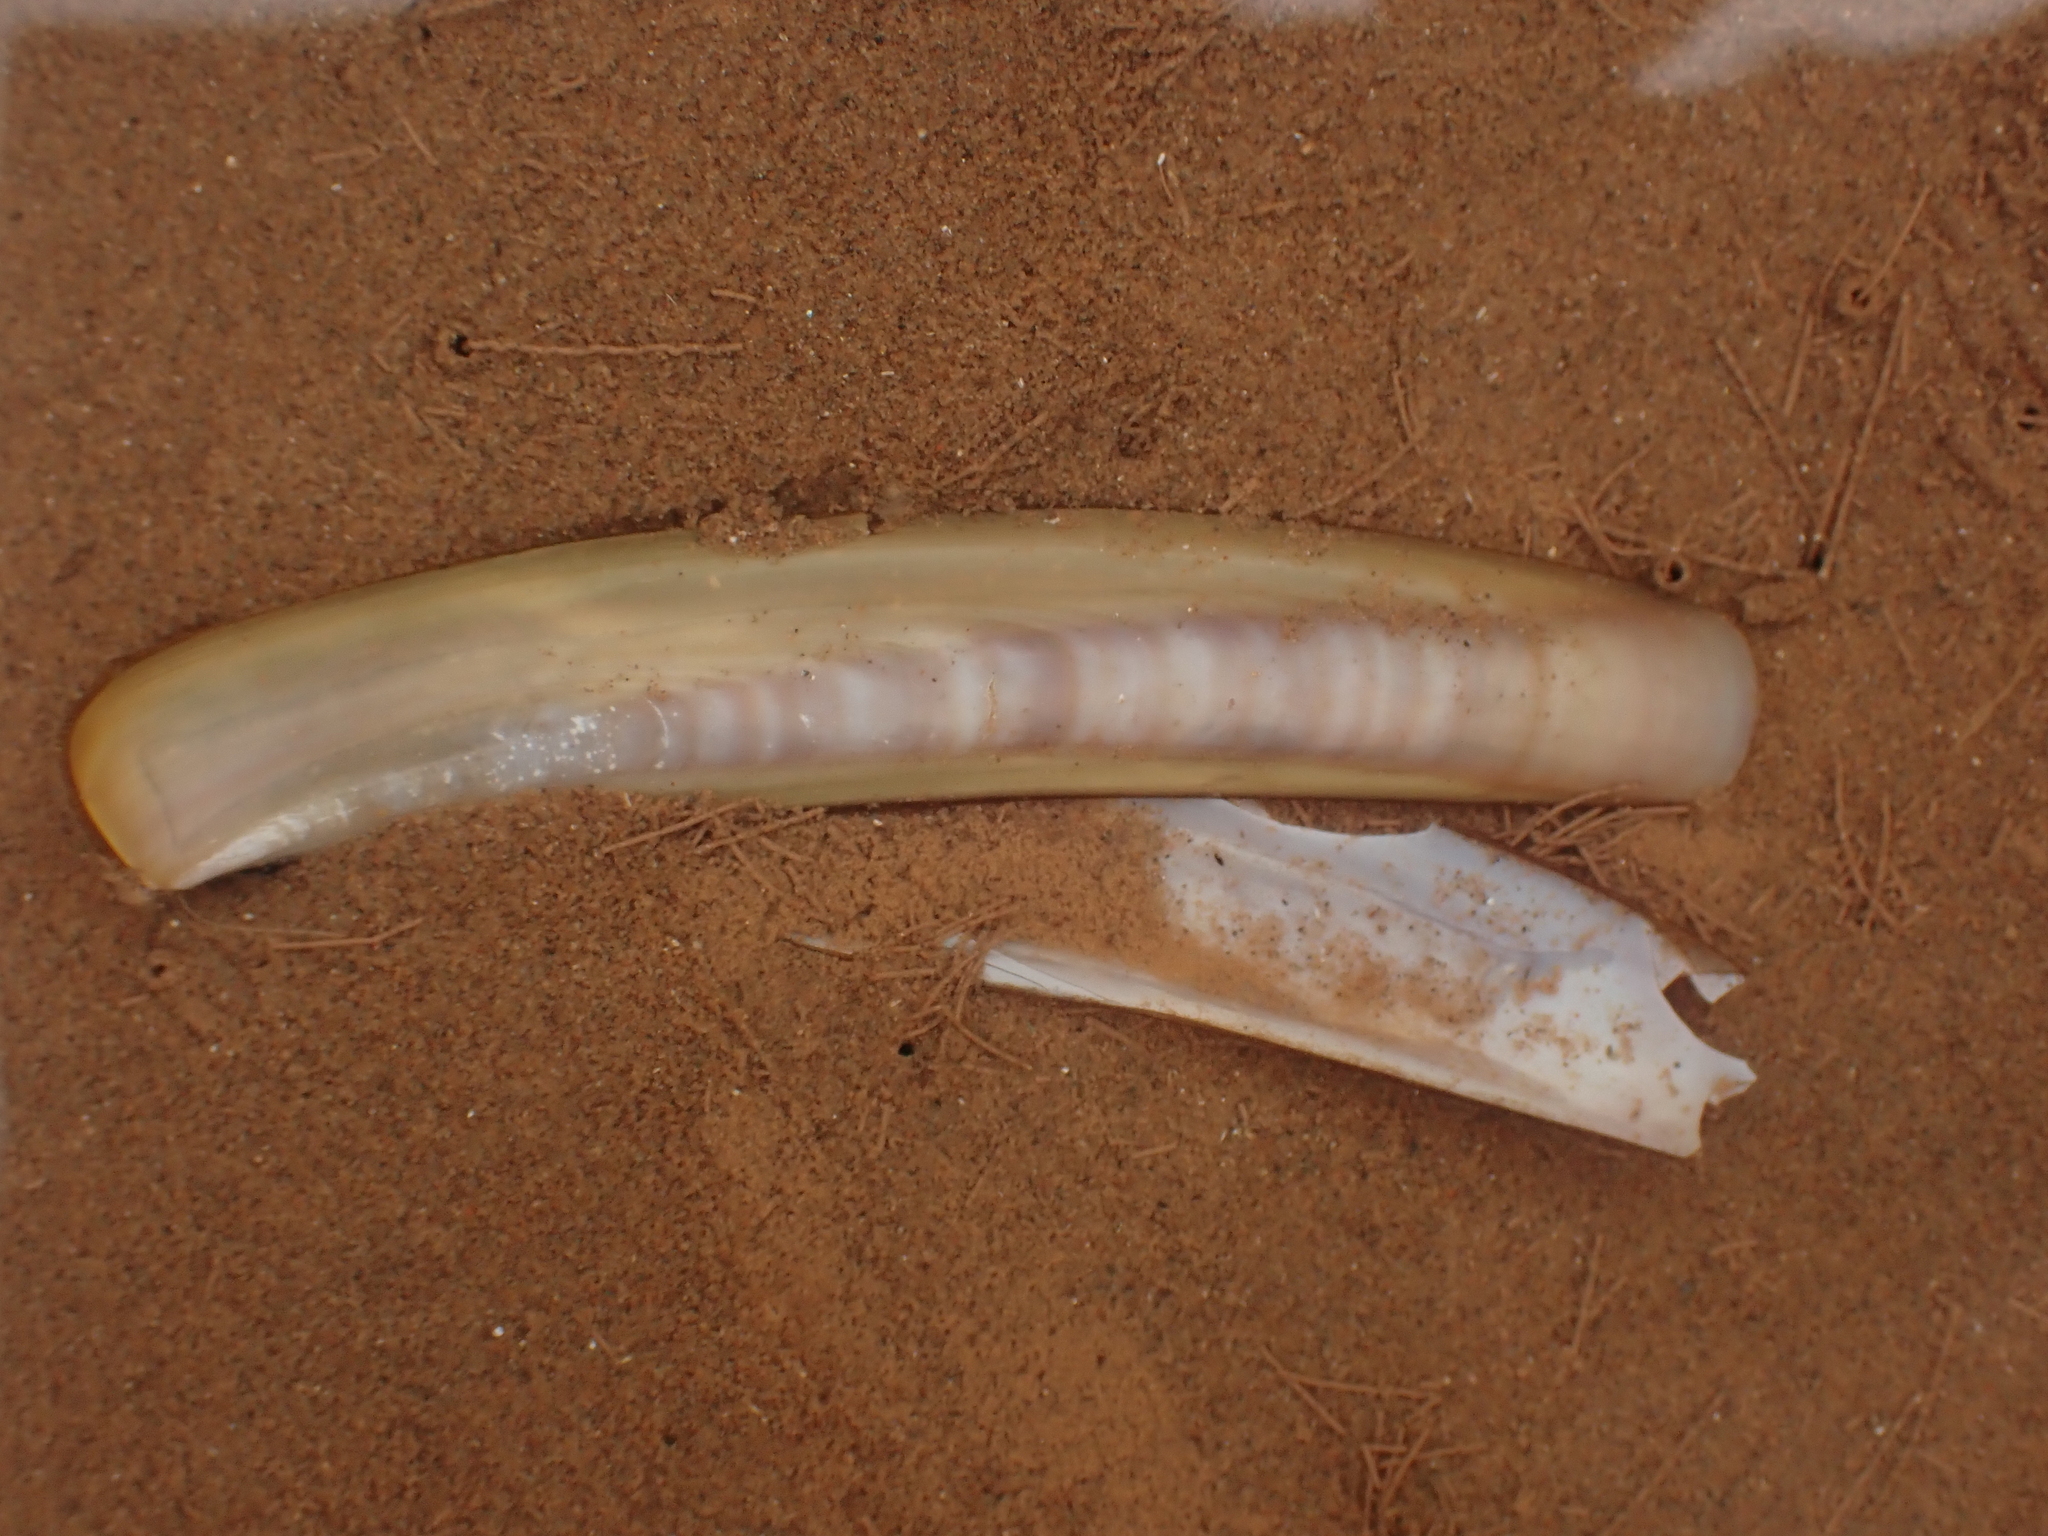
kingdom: Animalia
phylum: Mollusca
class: Bivalvia
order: Adapedonta
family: Pharidae
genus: Ensis
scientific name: Ensis leei
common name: American jack knife clam
